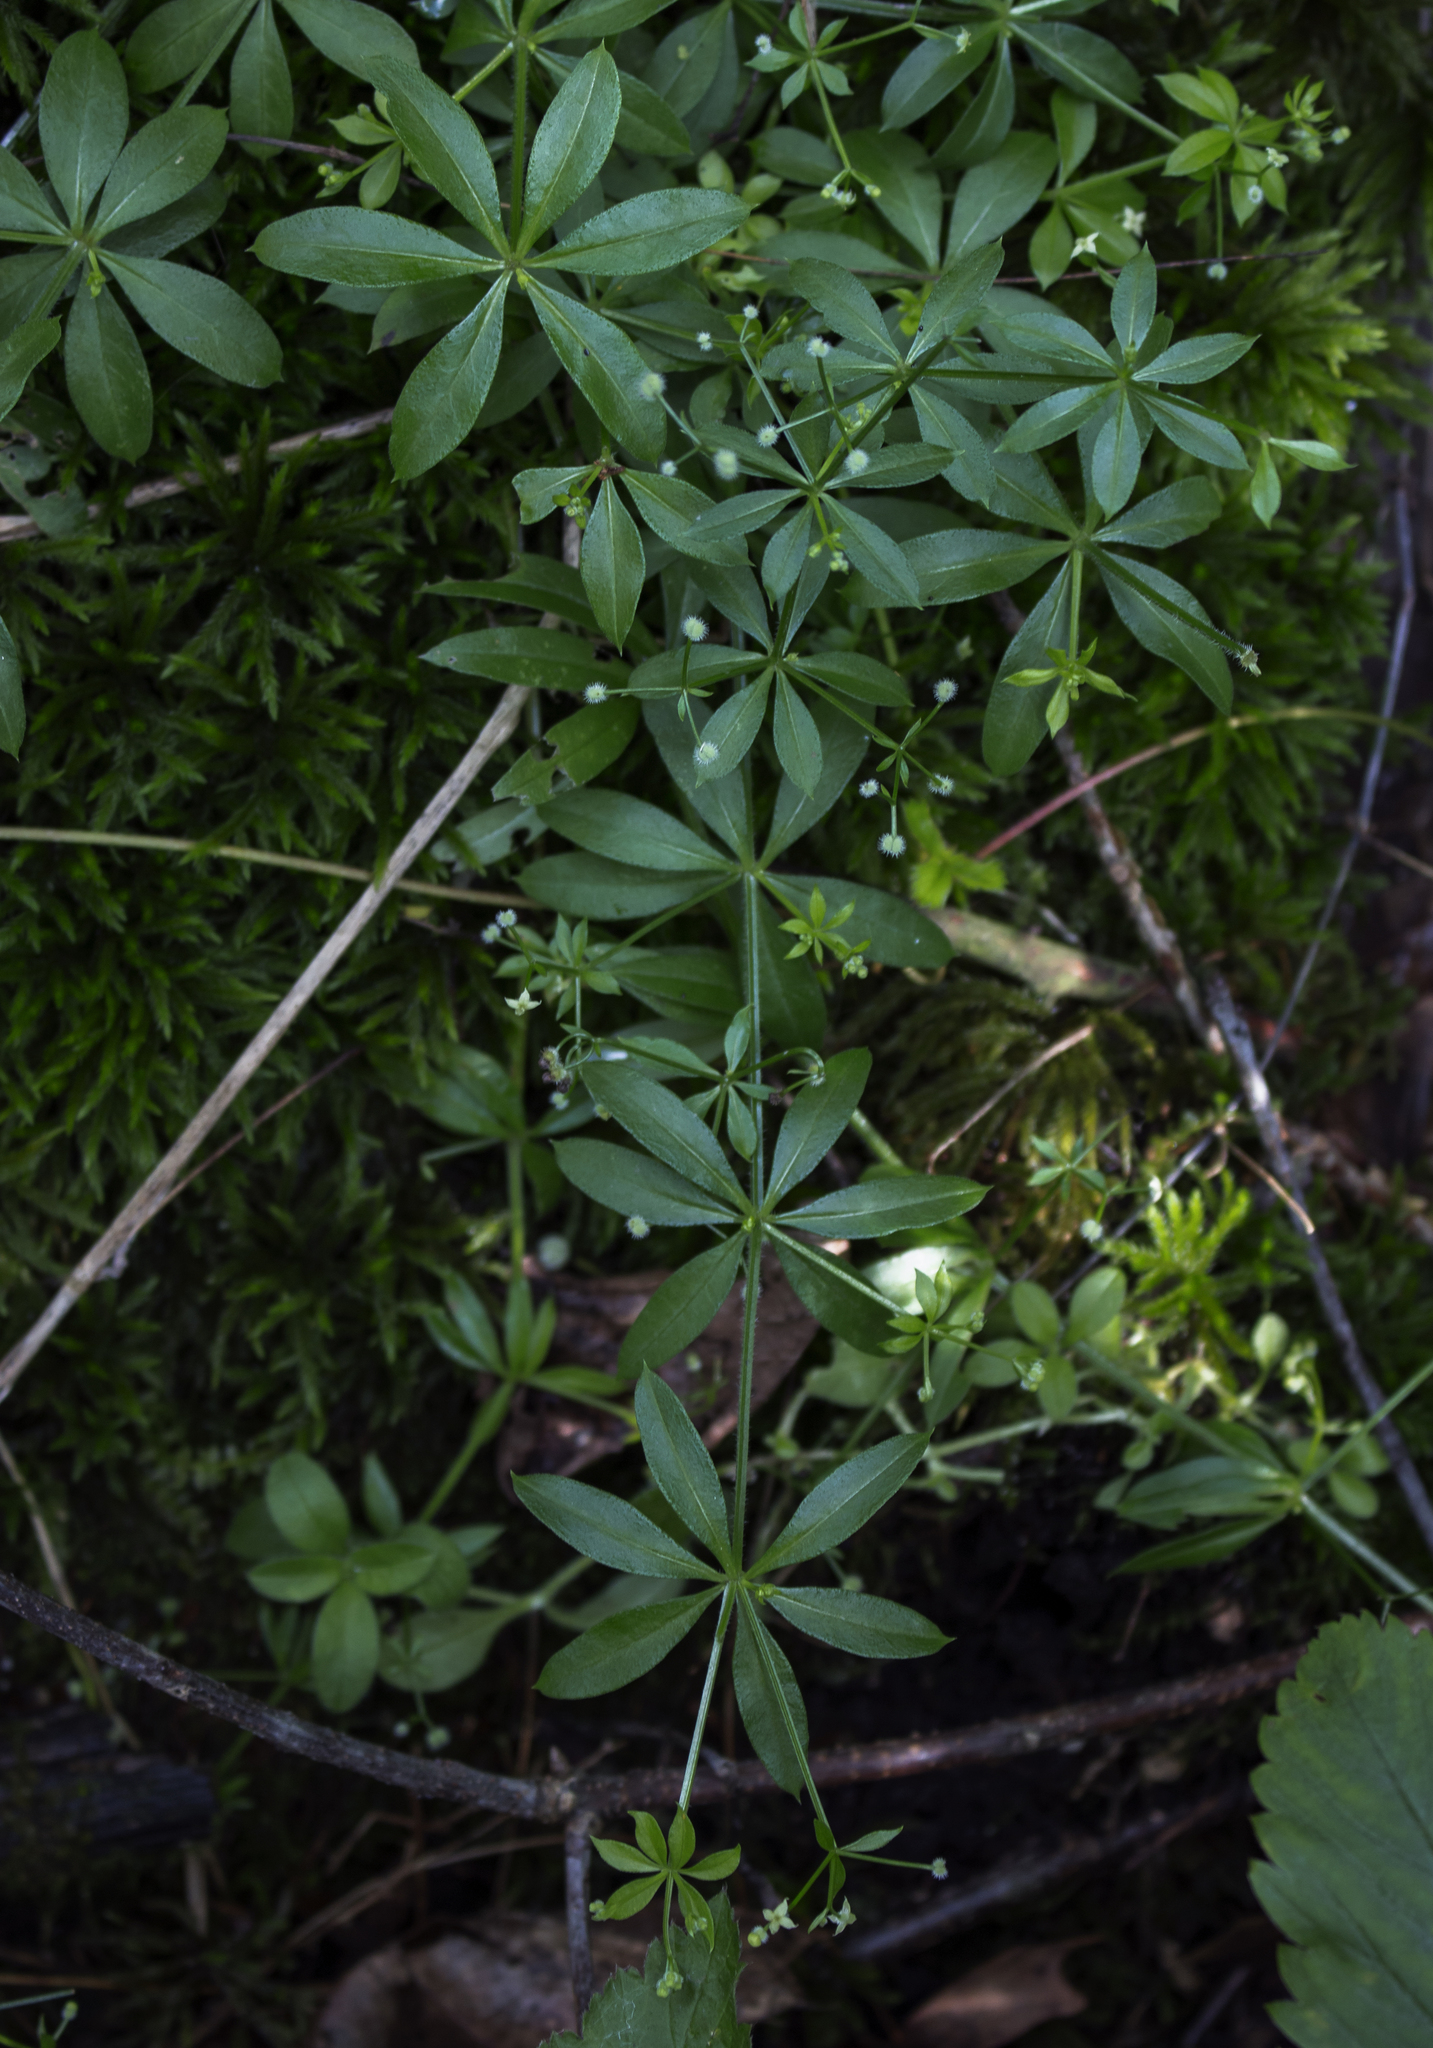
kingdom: Plantae
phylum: Tracheophyta
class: Magnoliopsida
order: Gentianales
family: Rubiaceae
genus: Galium
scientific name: Galium triflorum
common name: Fragrant bedstraw
